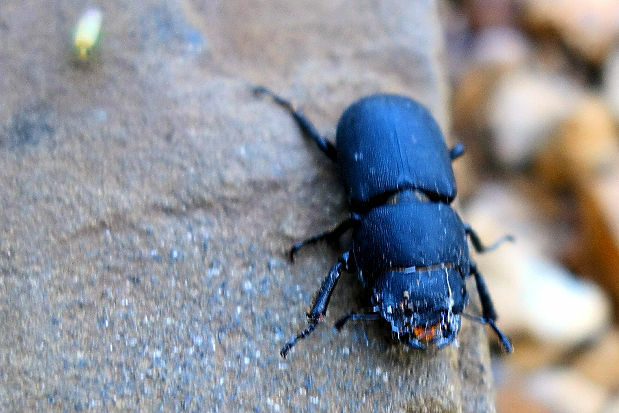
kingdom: Animalia
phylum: Arthropoda
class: Insecta
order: Coleoptera
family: Lucanidae
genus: Dorcus
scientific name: Dorcus parallelipipedus
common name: Lesser stag beetle
